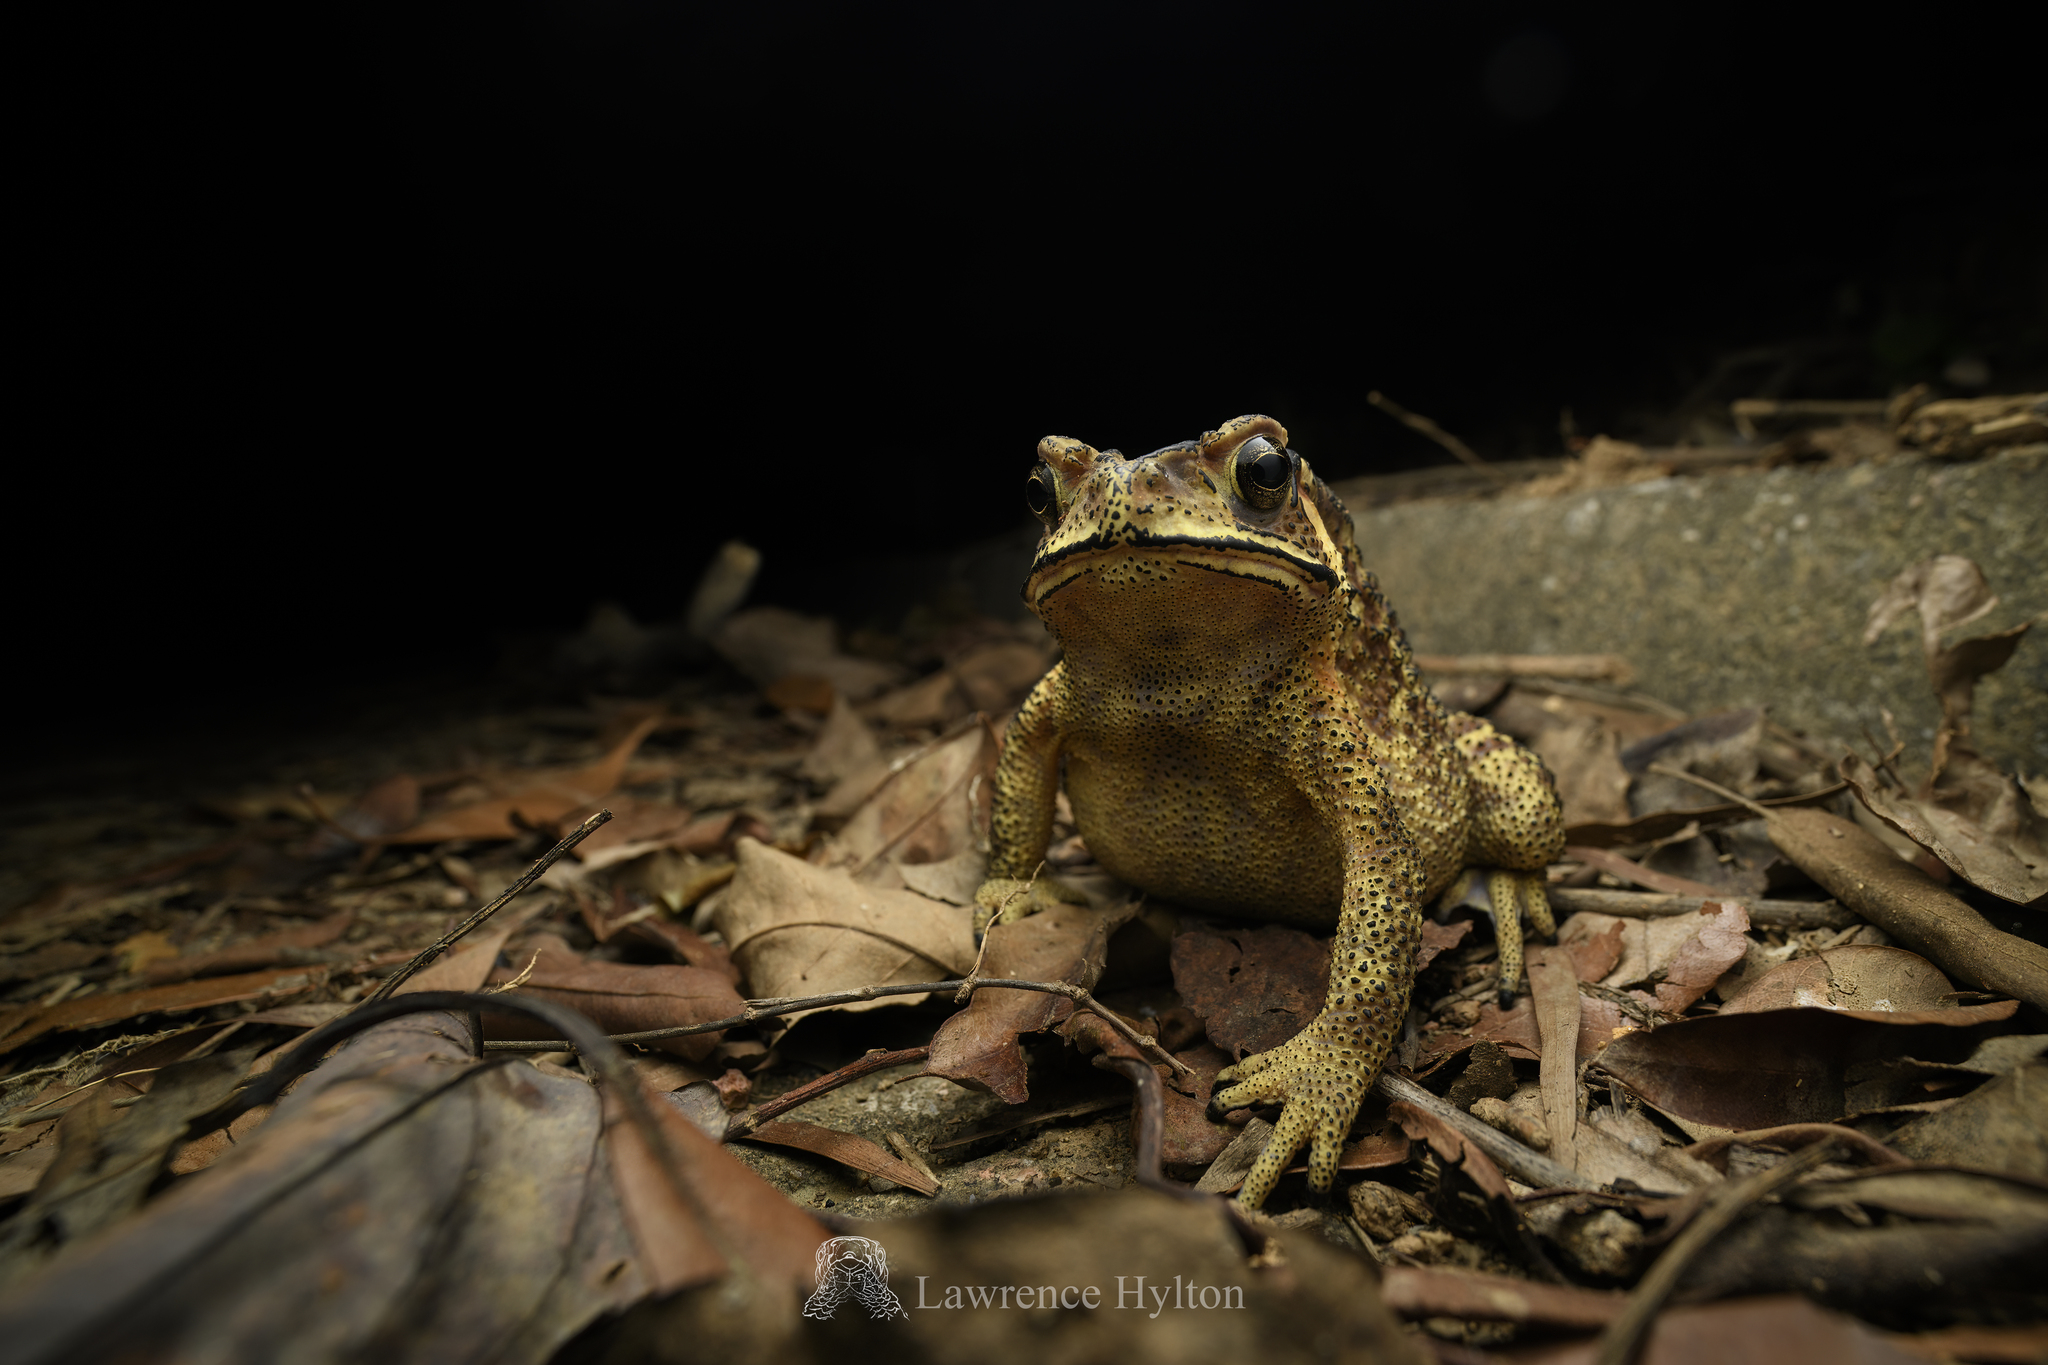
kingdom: Animalia
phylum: Chordata
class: Amphibia
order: Anura
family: Bufonidae
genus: Duttaphrynus
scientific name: Duttaphrynus melanostictus
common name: Common sunda toad
